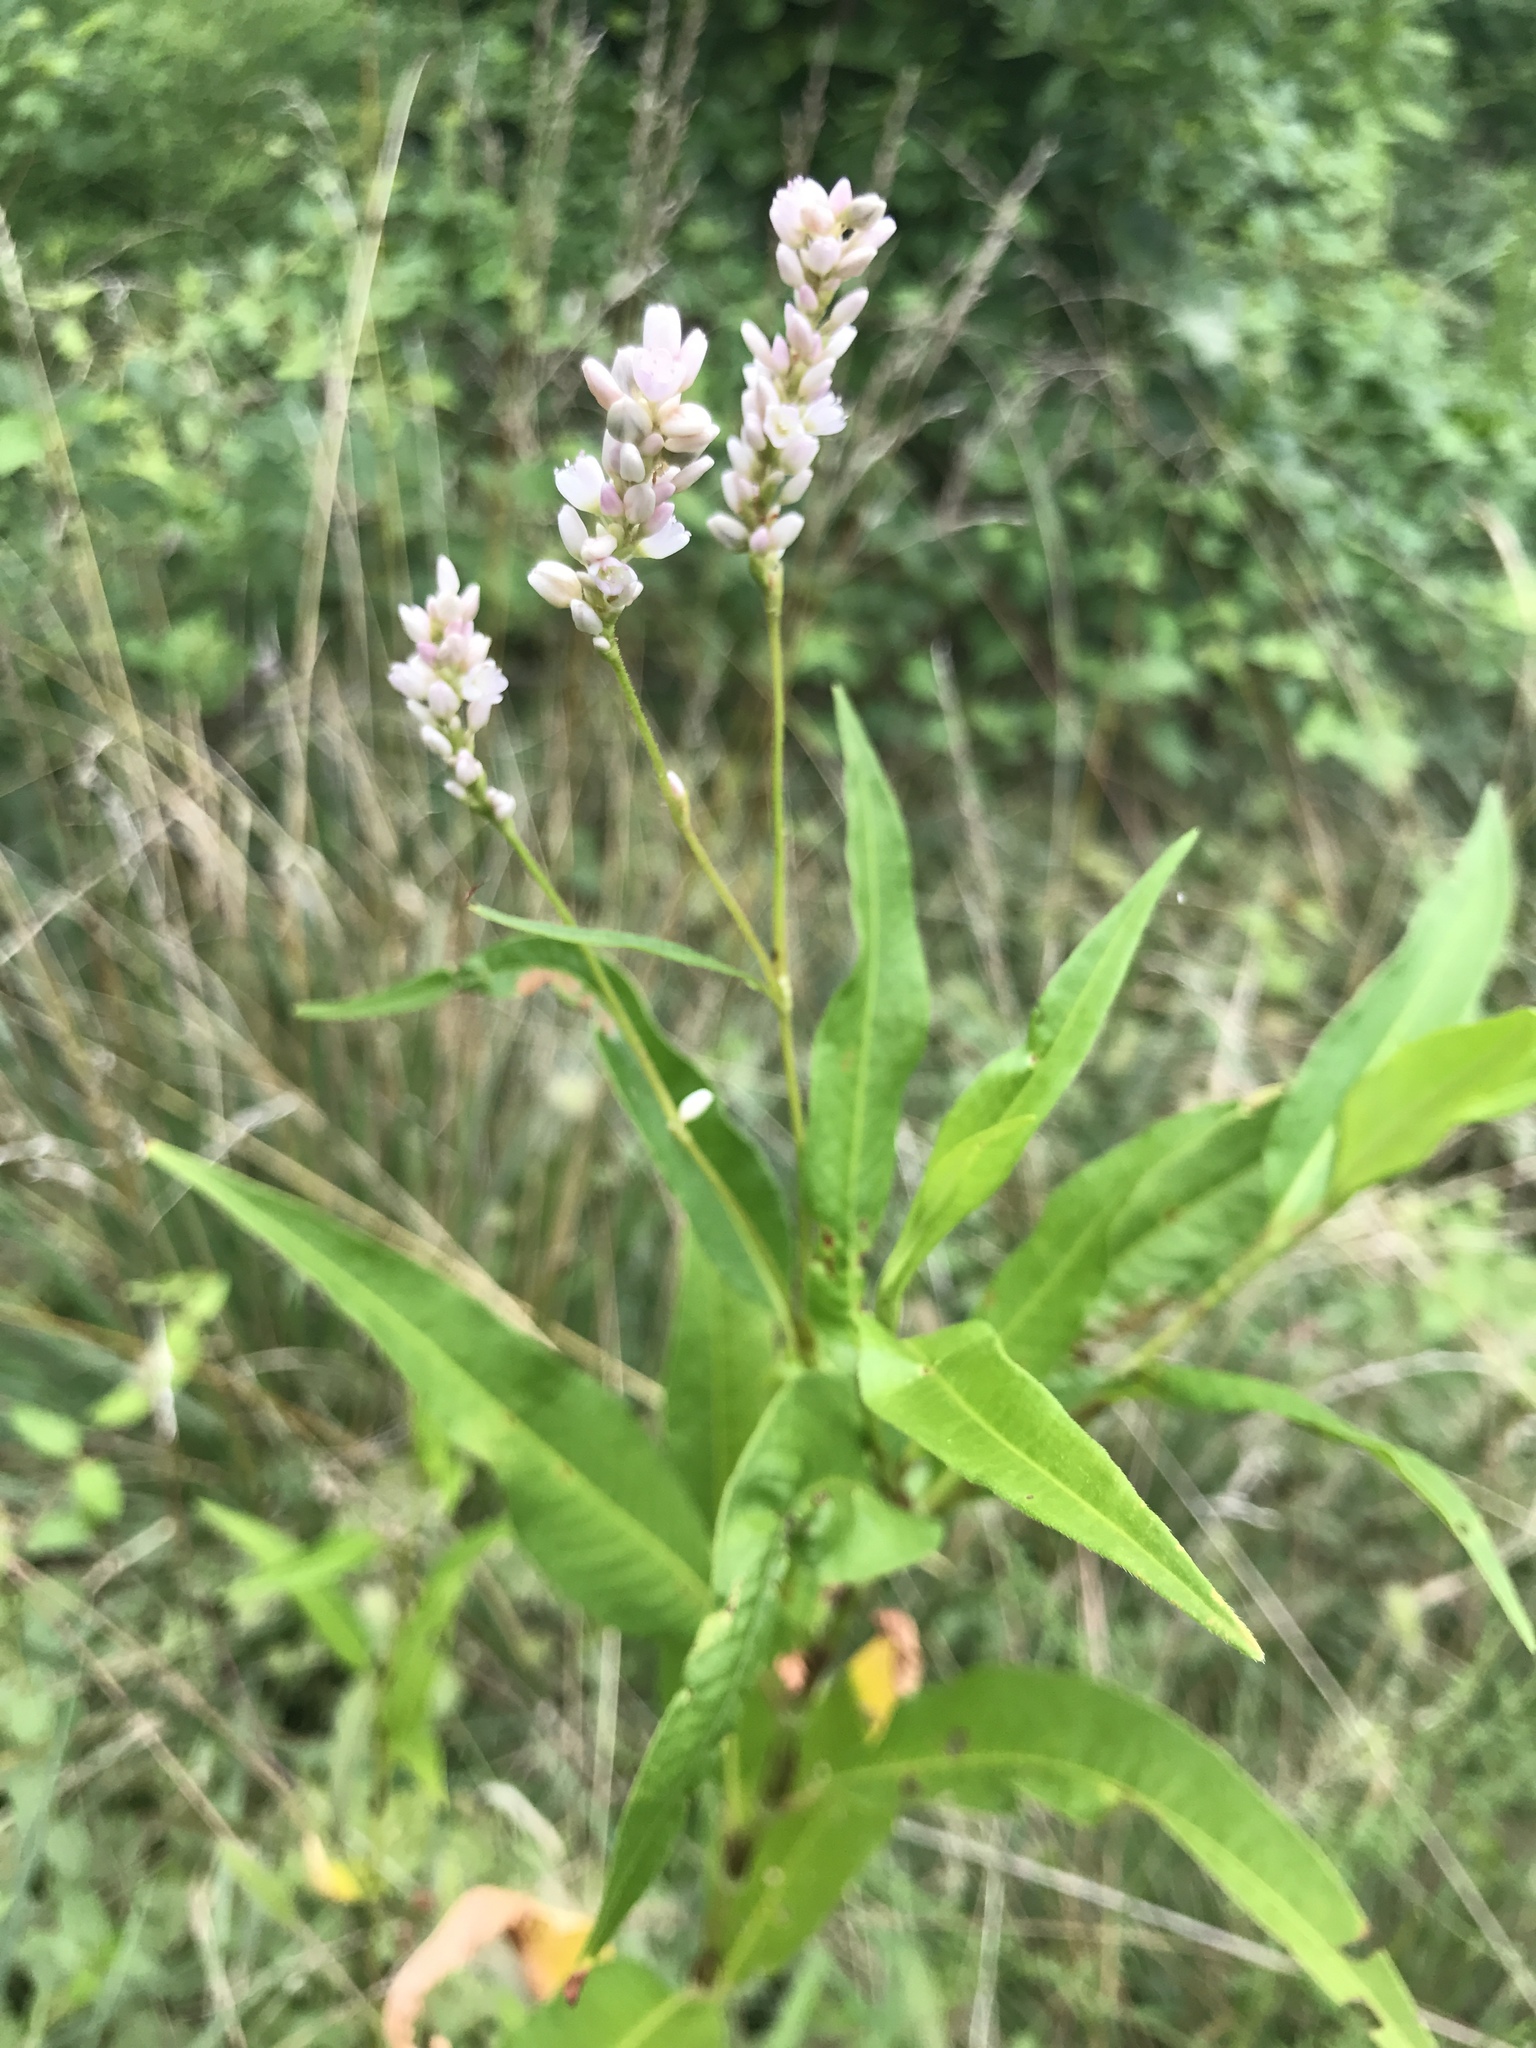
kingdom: Plantae
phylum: Tracheophyta
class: Magnoliopsida
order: Caryophyllales
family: Polygonaceae
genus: Persicaria
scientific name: Persicaria pensylvanica
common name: Pinkweed
